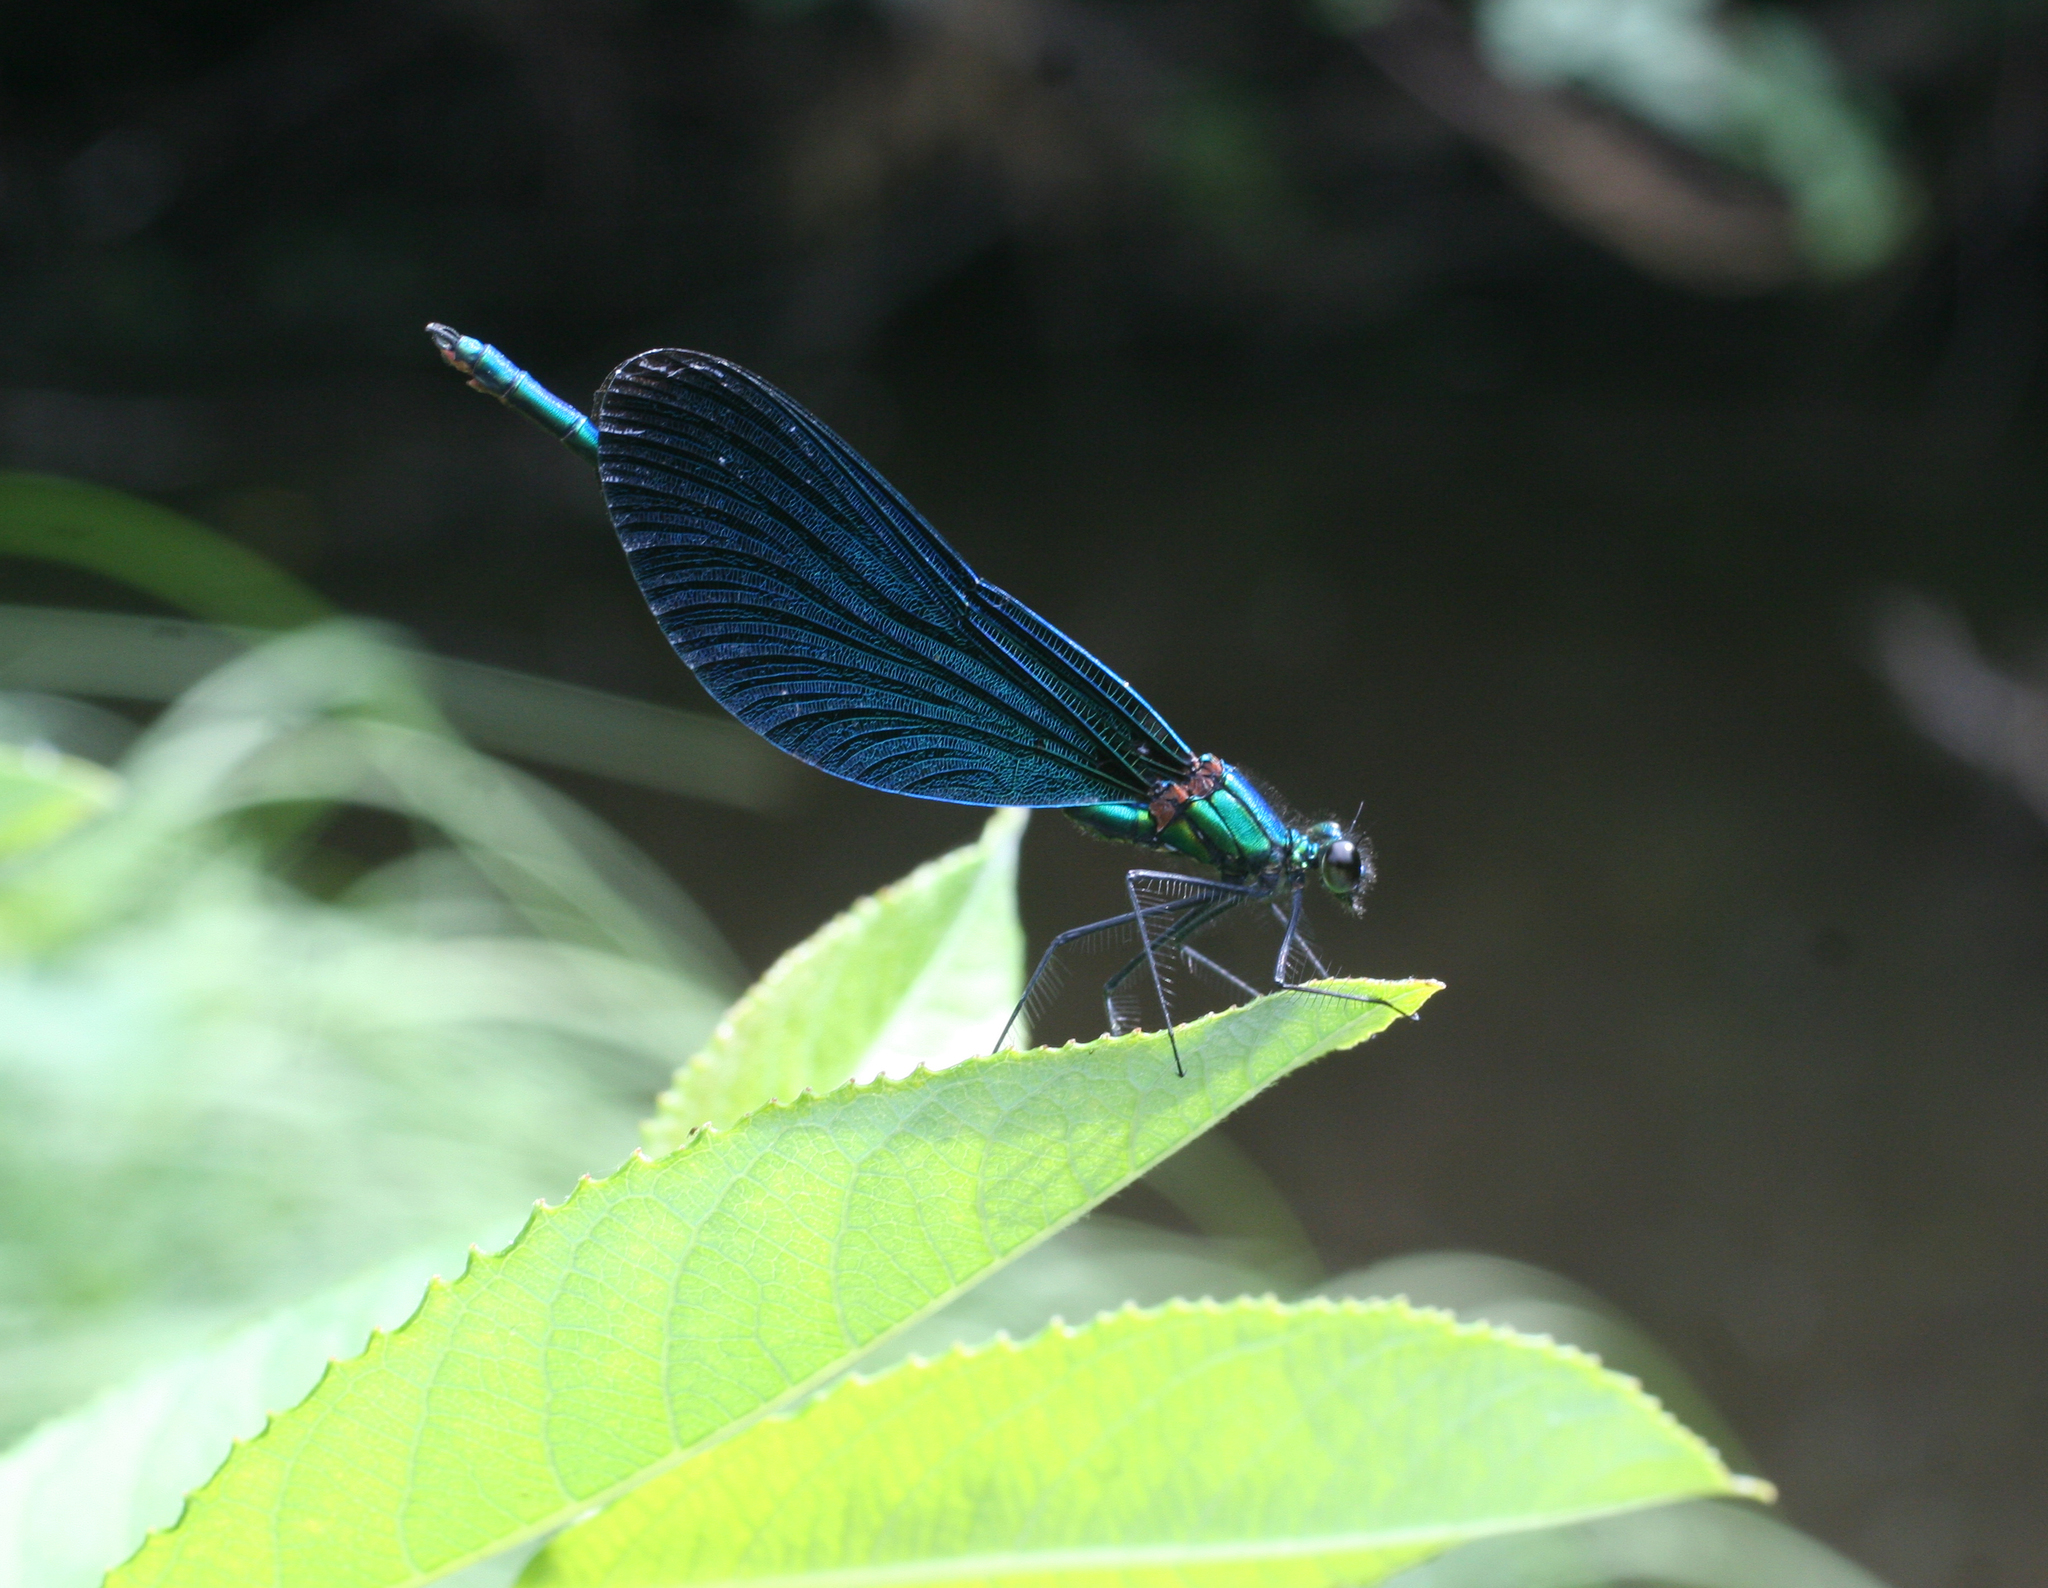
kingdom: Animalia
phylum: Arthropoda
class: Insecta
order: Odonata
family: Calopterygidae
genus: Calopteryx
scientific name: Calopteryx virgo
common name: Beautiful demoiselle
